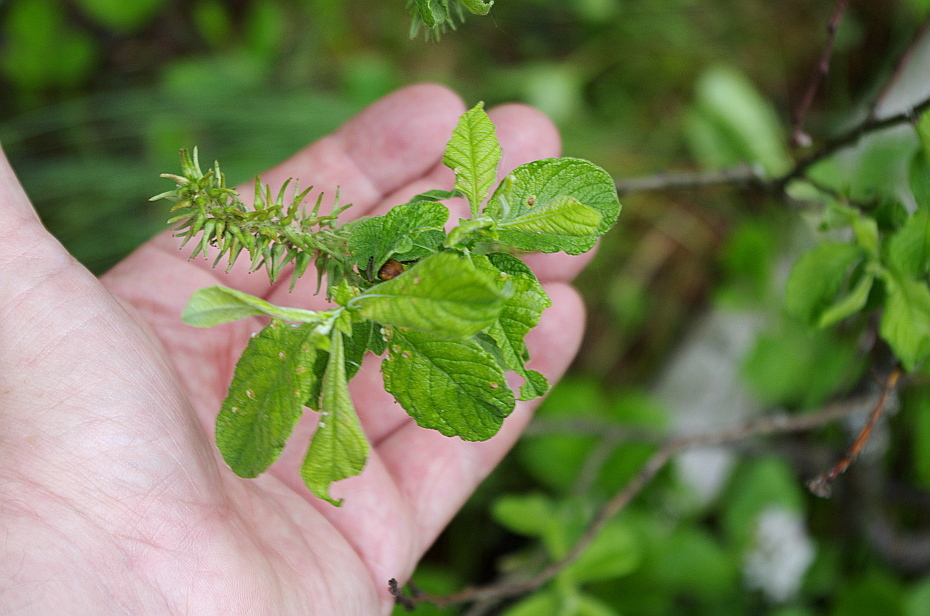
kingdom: Plantae
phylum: Tracheophyta
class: Magnoliopsida
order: Malpighiales
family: Salicaceae
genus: Salix
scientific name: Salix aurita
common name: Eared willow
